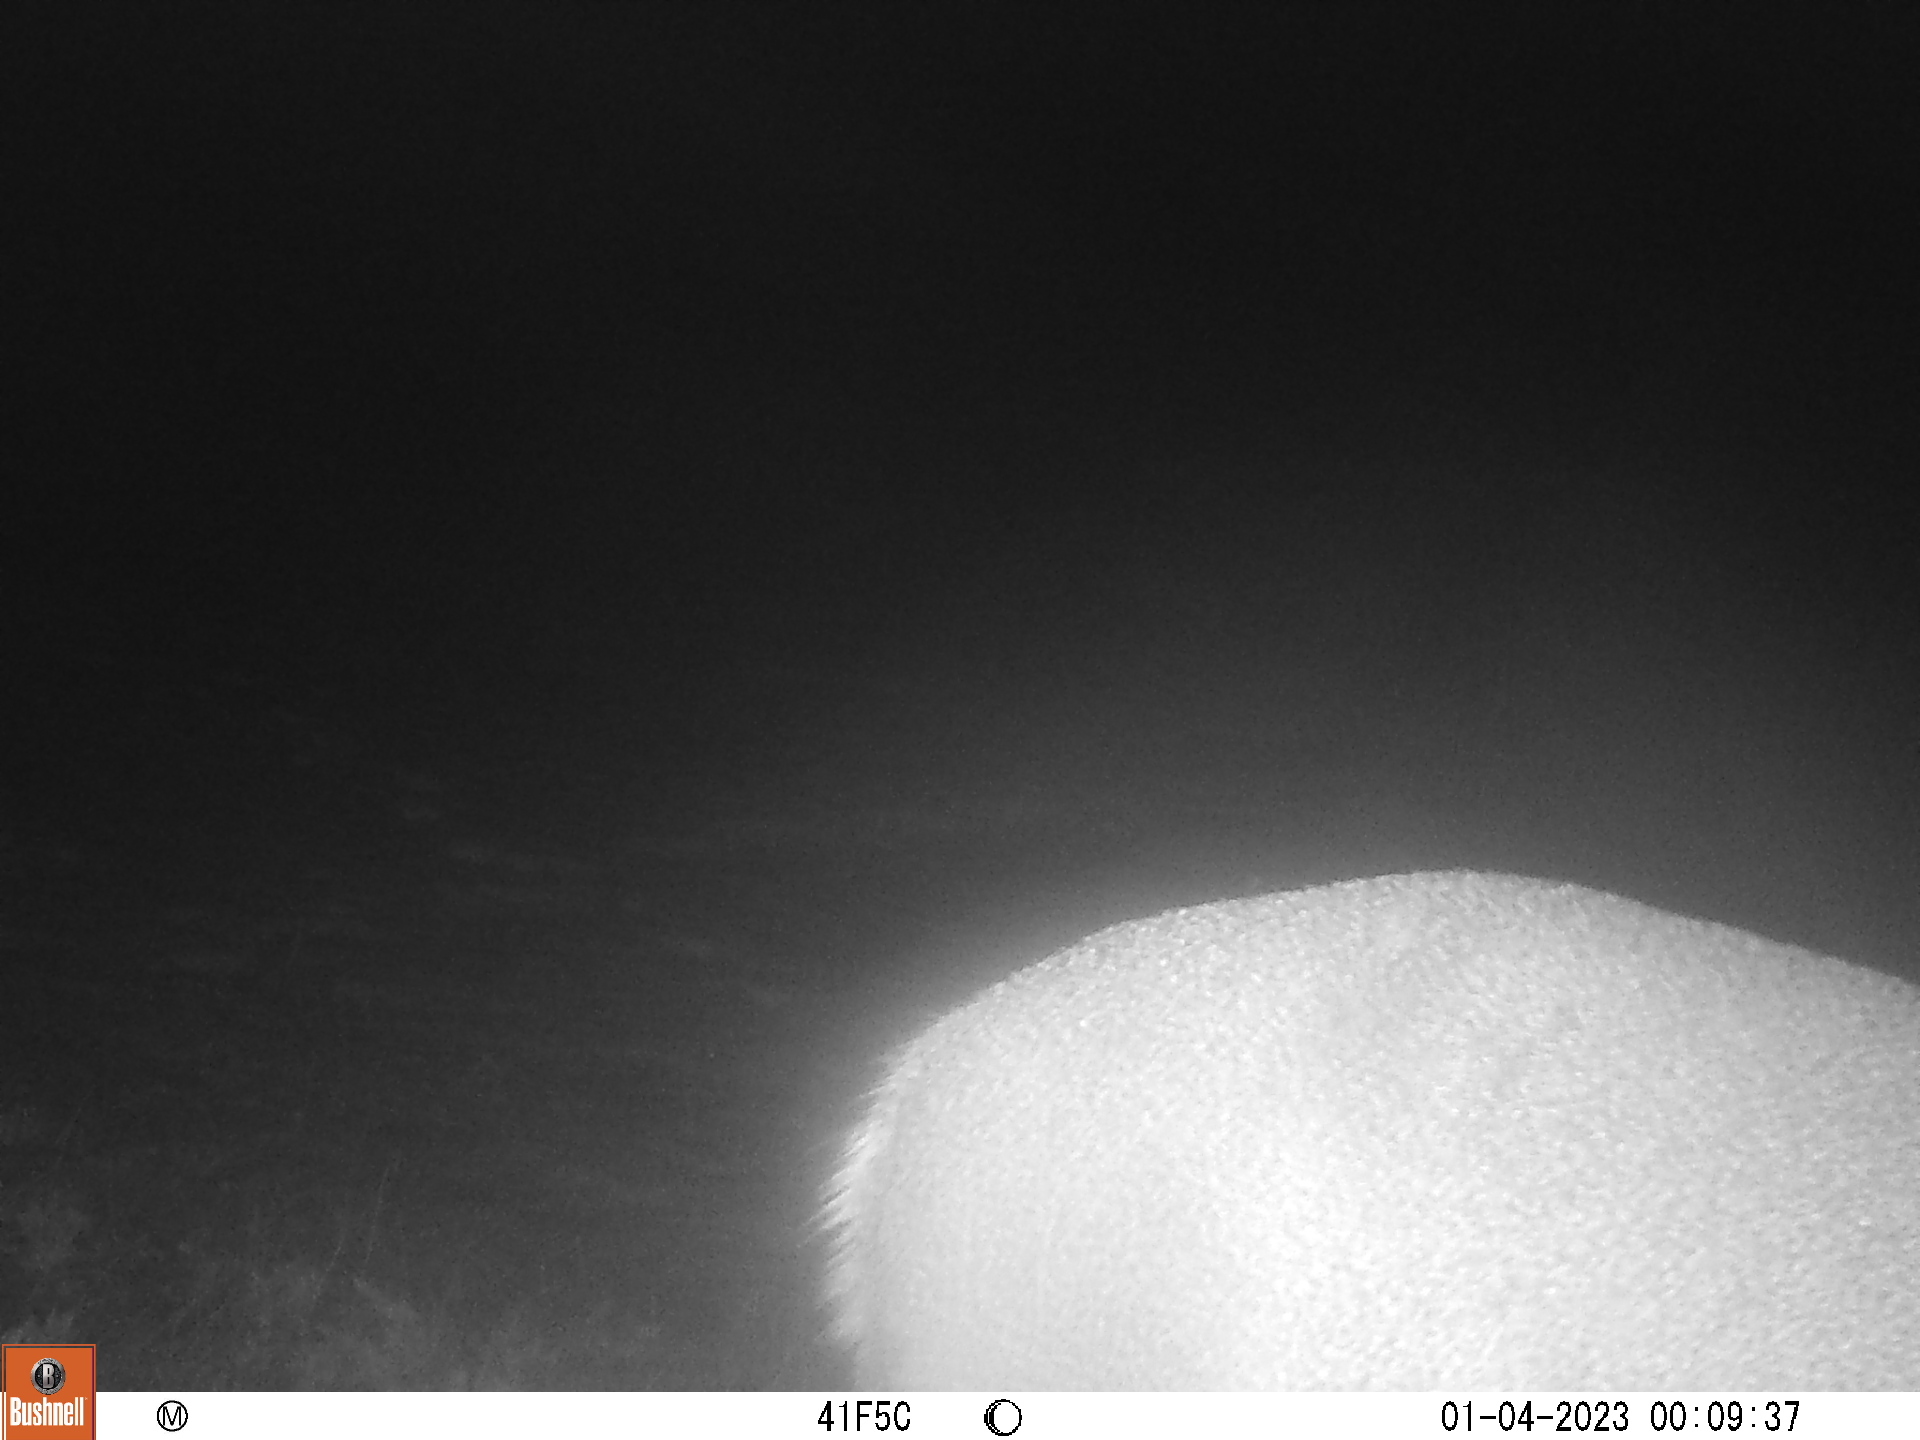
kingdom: Animalia
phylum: Chordata
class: Mammalia
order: Artiodactyla
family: Cervidae
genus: Odocoileus
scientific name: Odocoileus virginianus
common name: White-tailed deer
